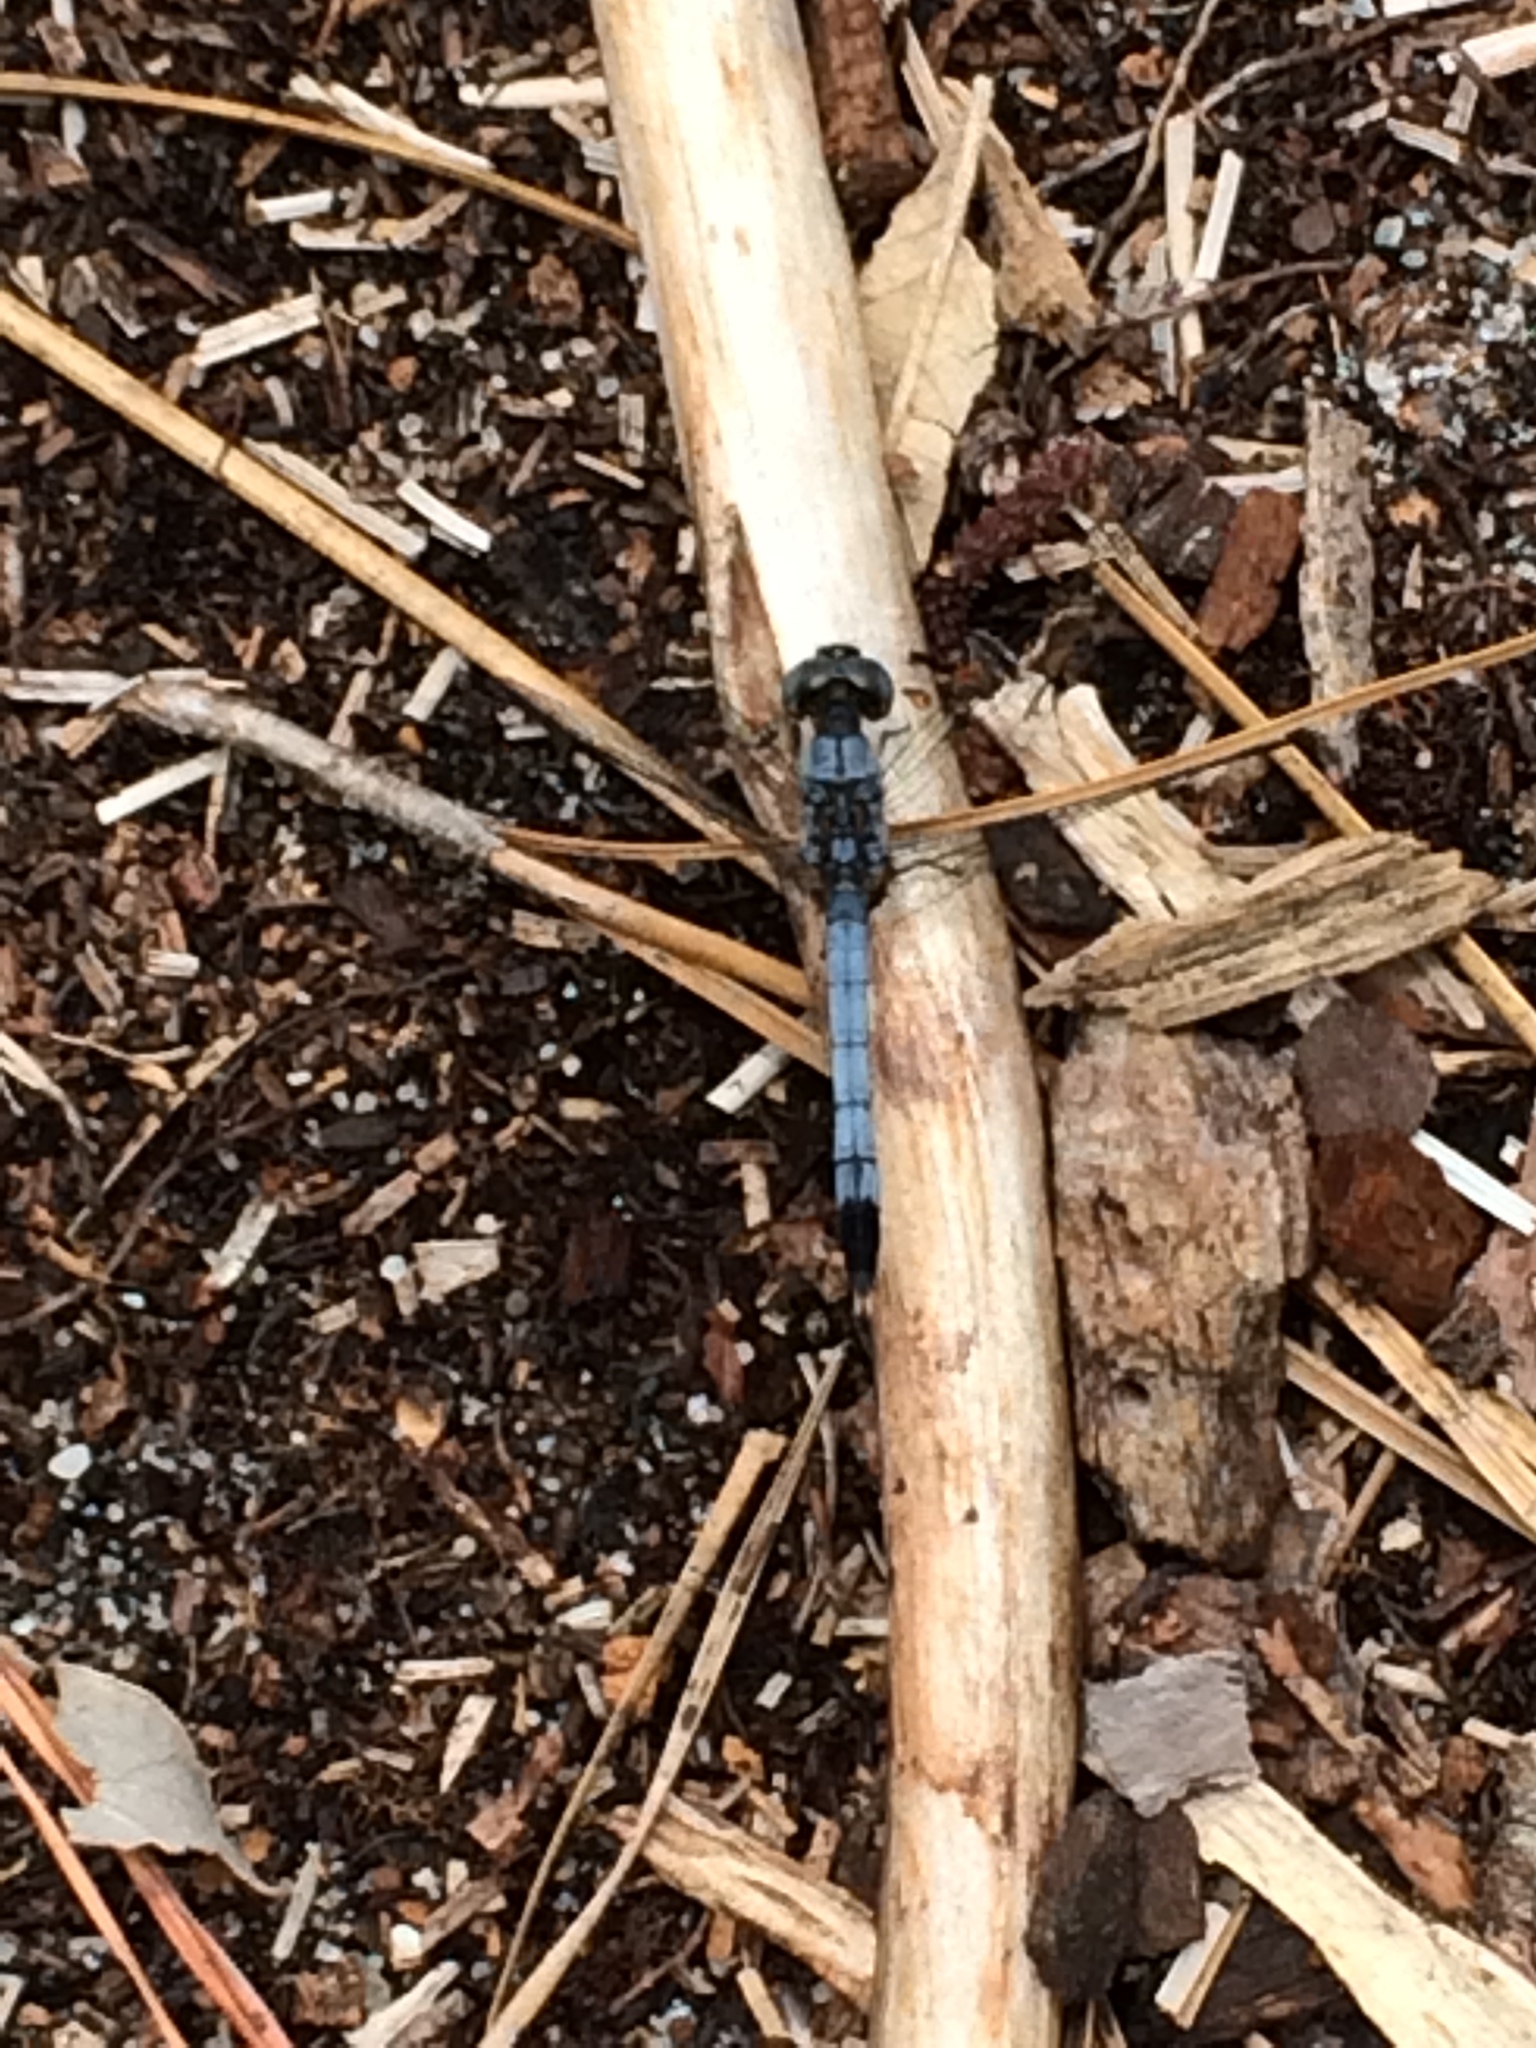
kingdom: Animalia
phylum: Arthropoda
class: Insecta
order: Odonata
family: Libellulidae
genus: Erythrodiplax
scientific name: Erythrodiplax minuscula
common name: Little blue dragonlet
